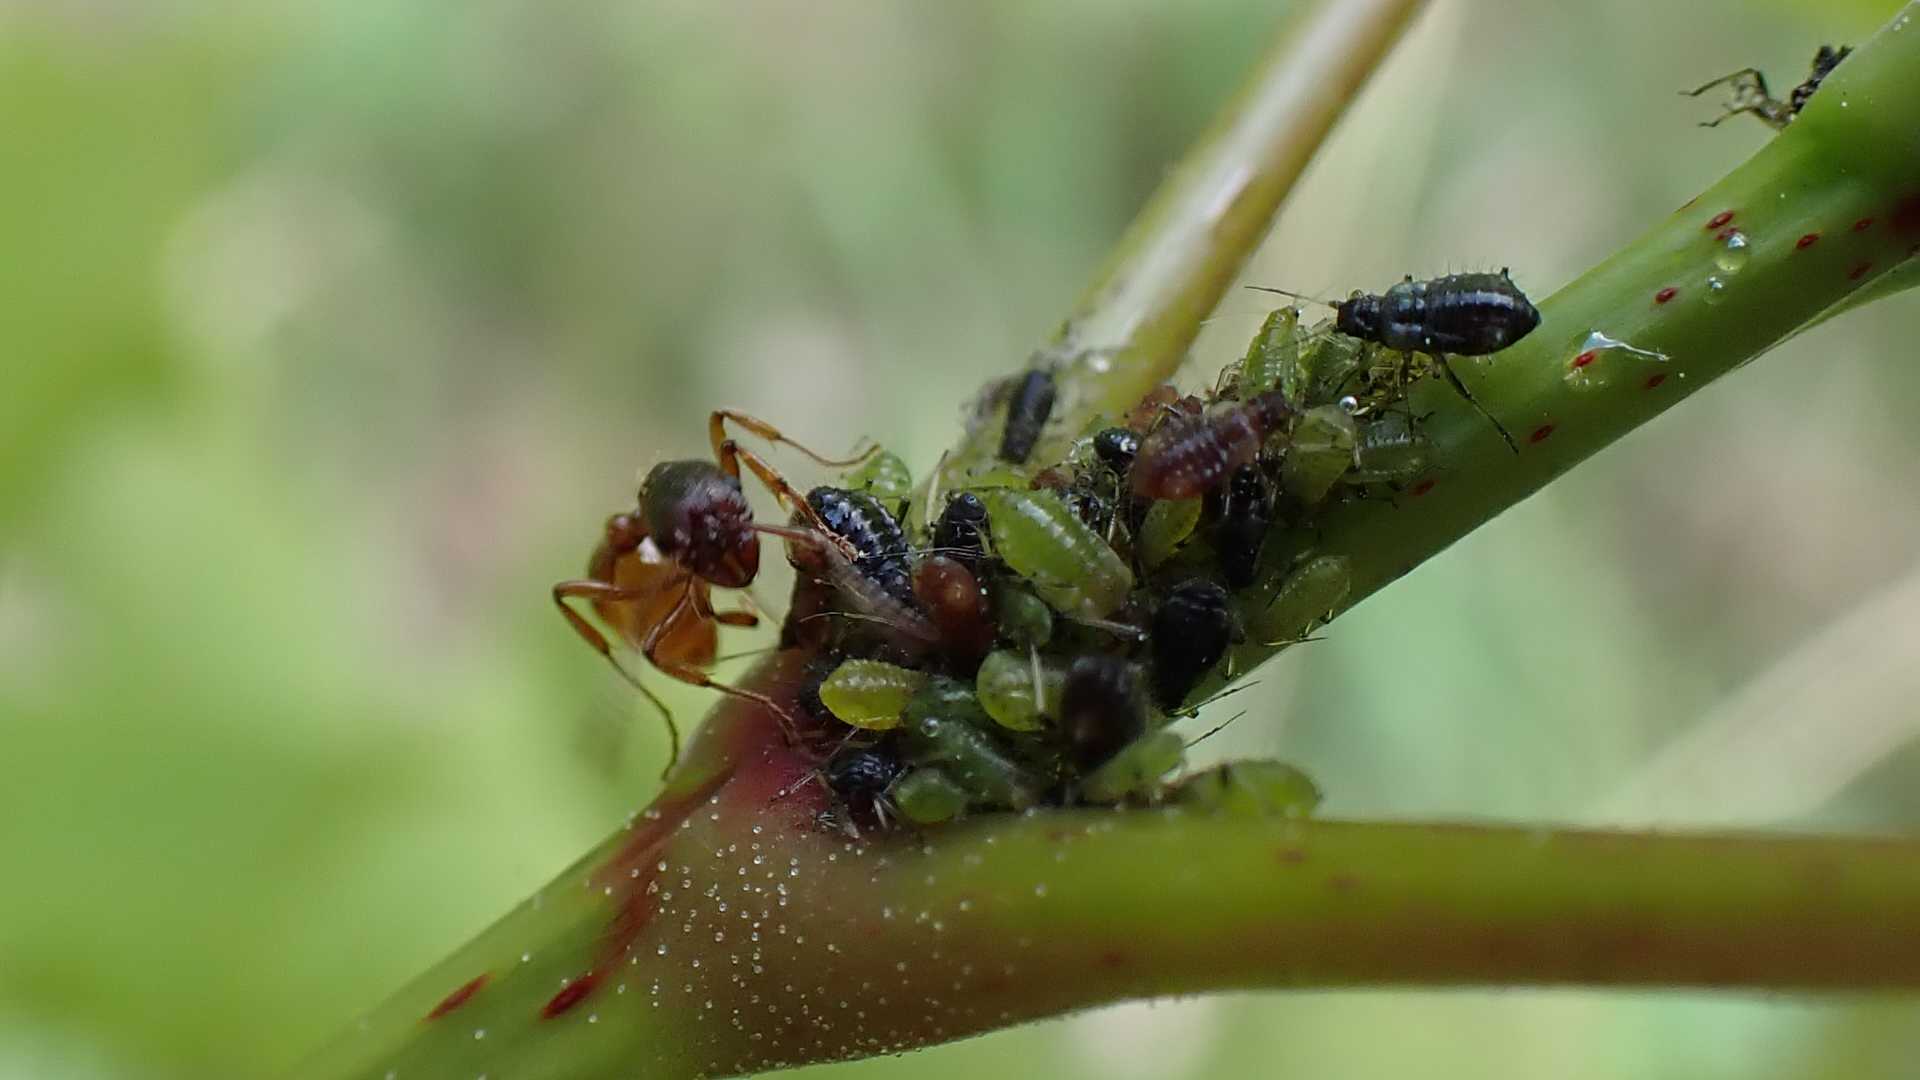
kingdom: Animalia
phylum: Arthropoda
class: Insecta
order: Hymenoptera
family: Formicidae
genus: Myrmica
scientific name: Myrmica
